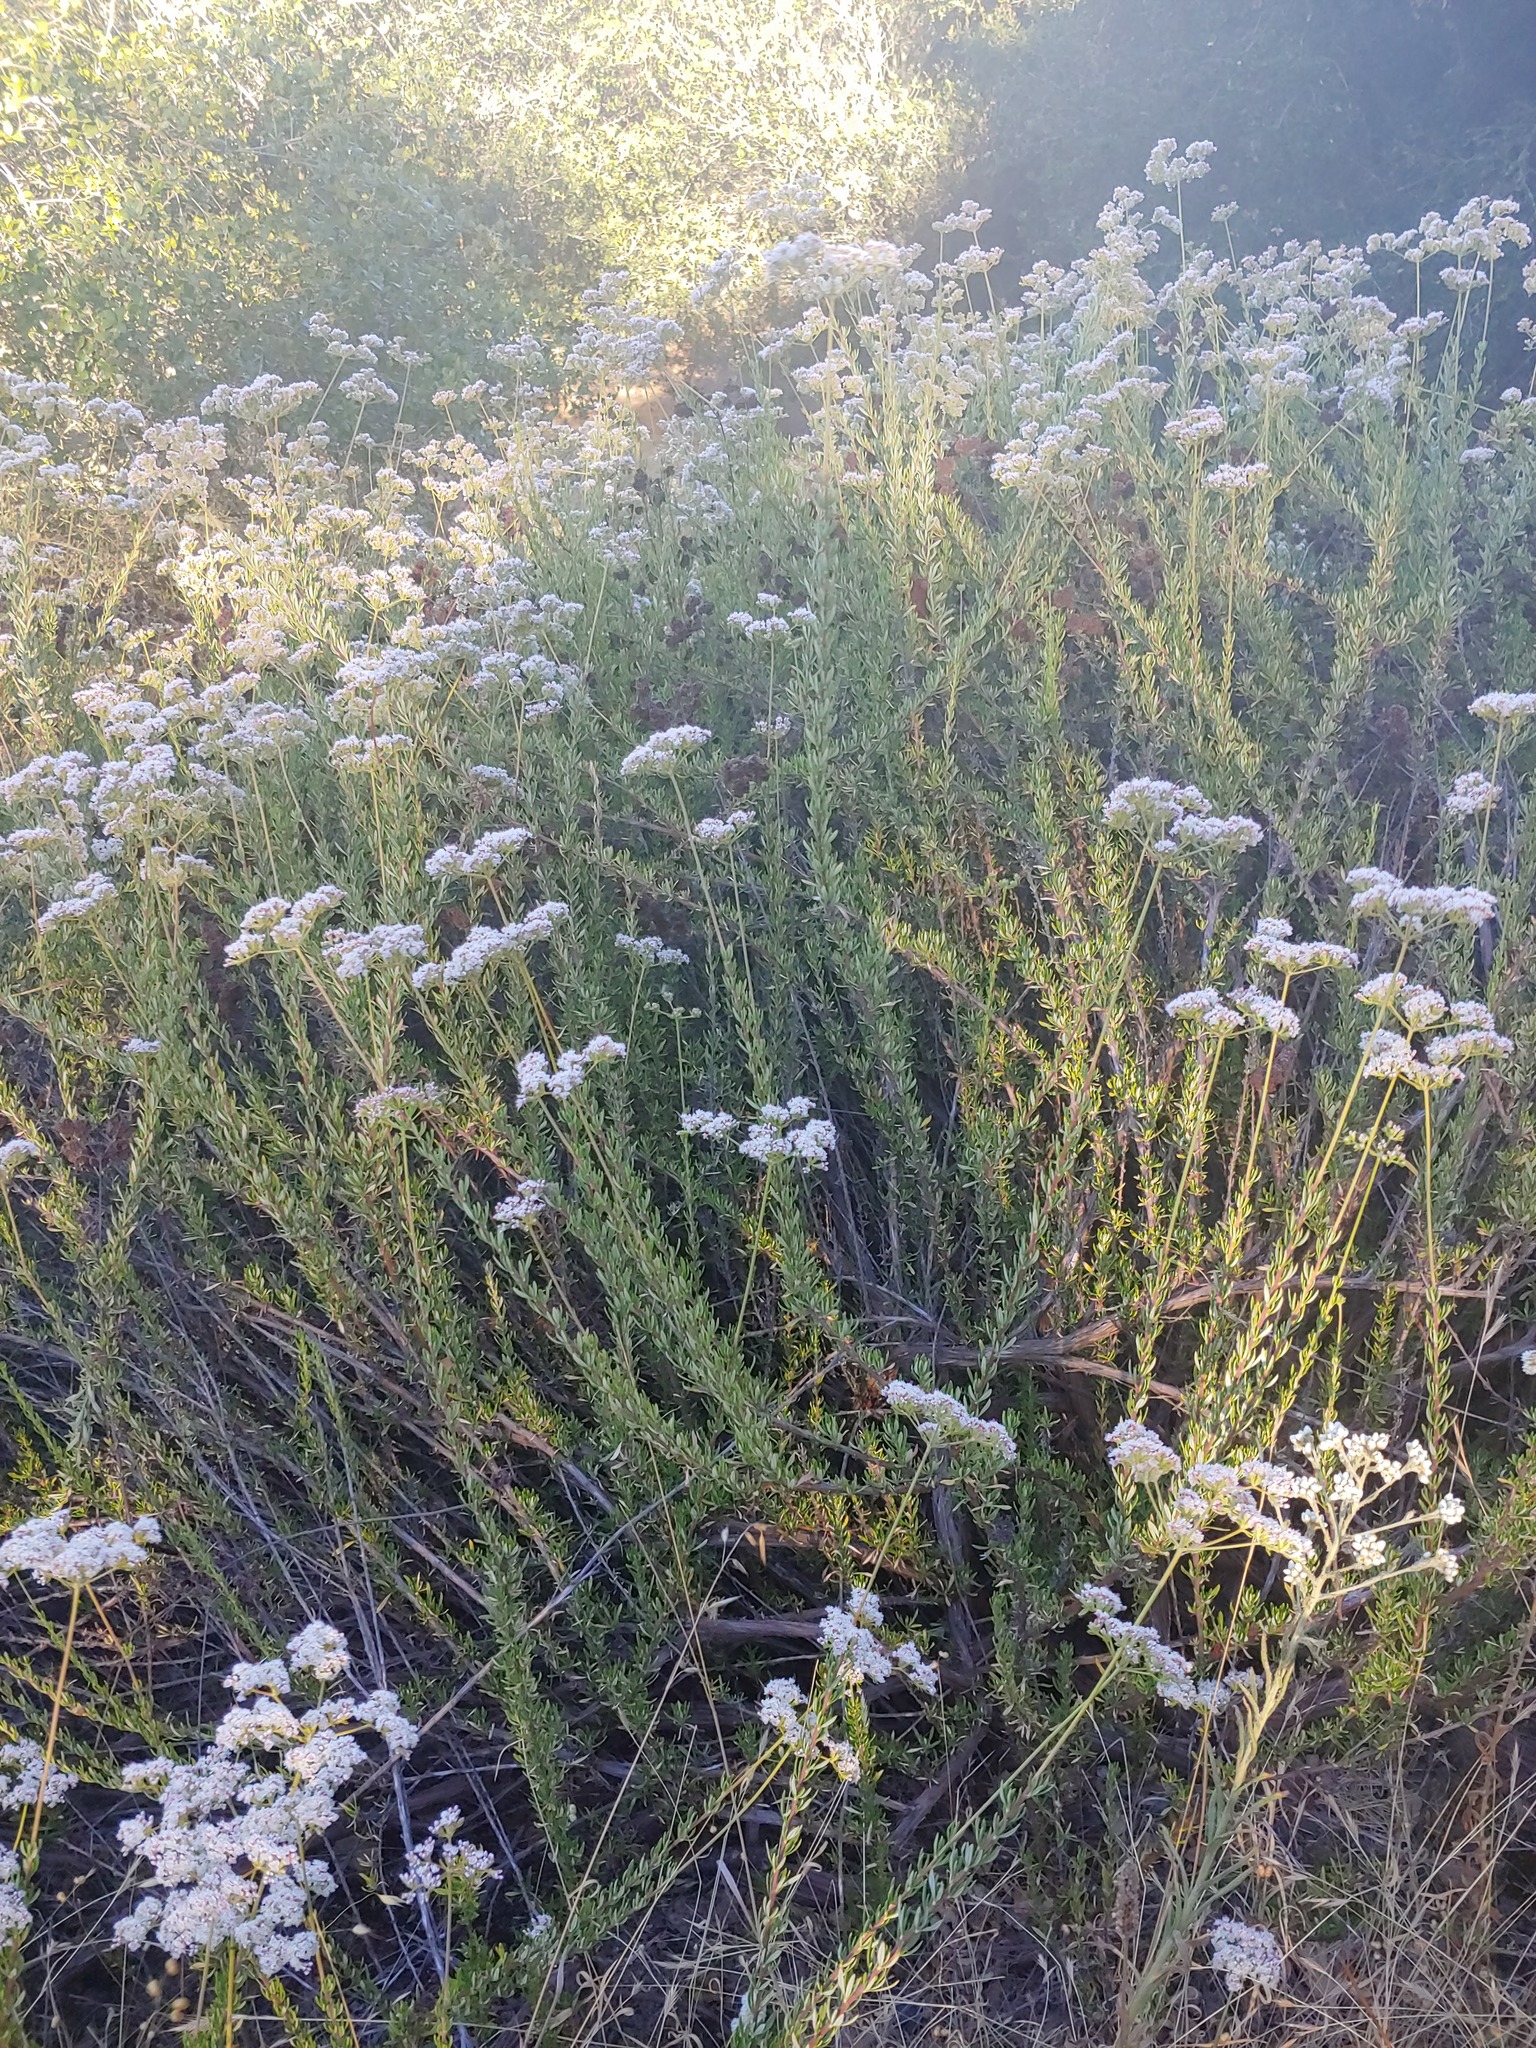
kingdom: Plantae
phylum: Tracheophyta
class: Magnoliopsida
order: Caryophyllales
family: Polygonaceae
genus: Eriogonum
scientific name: Eriogonum fasciculatum
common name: California wild buckwheat
